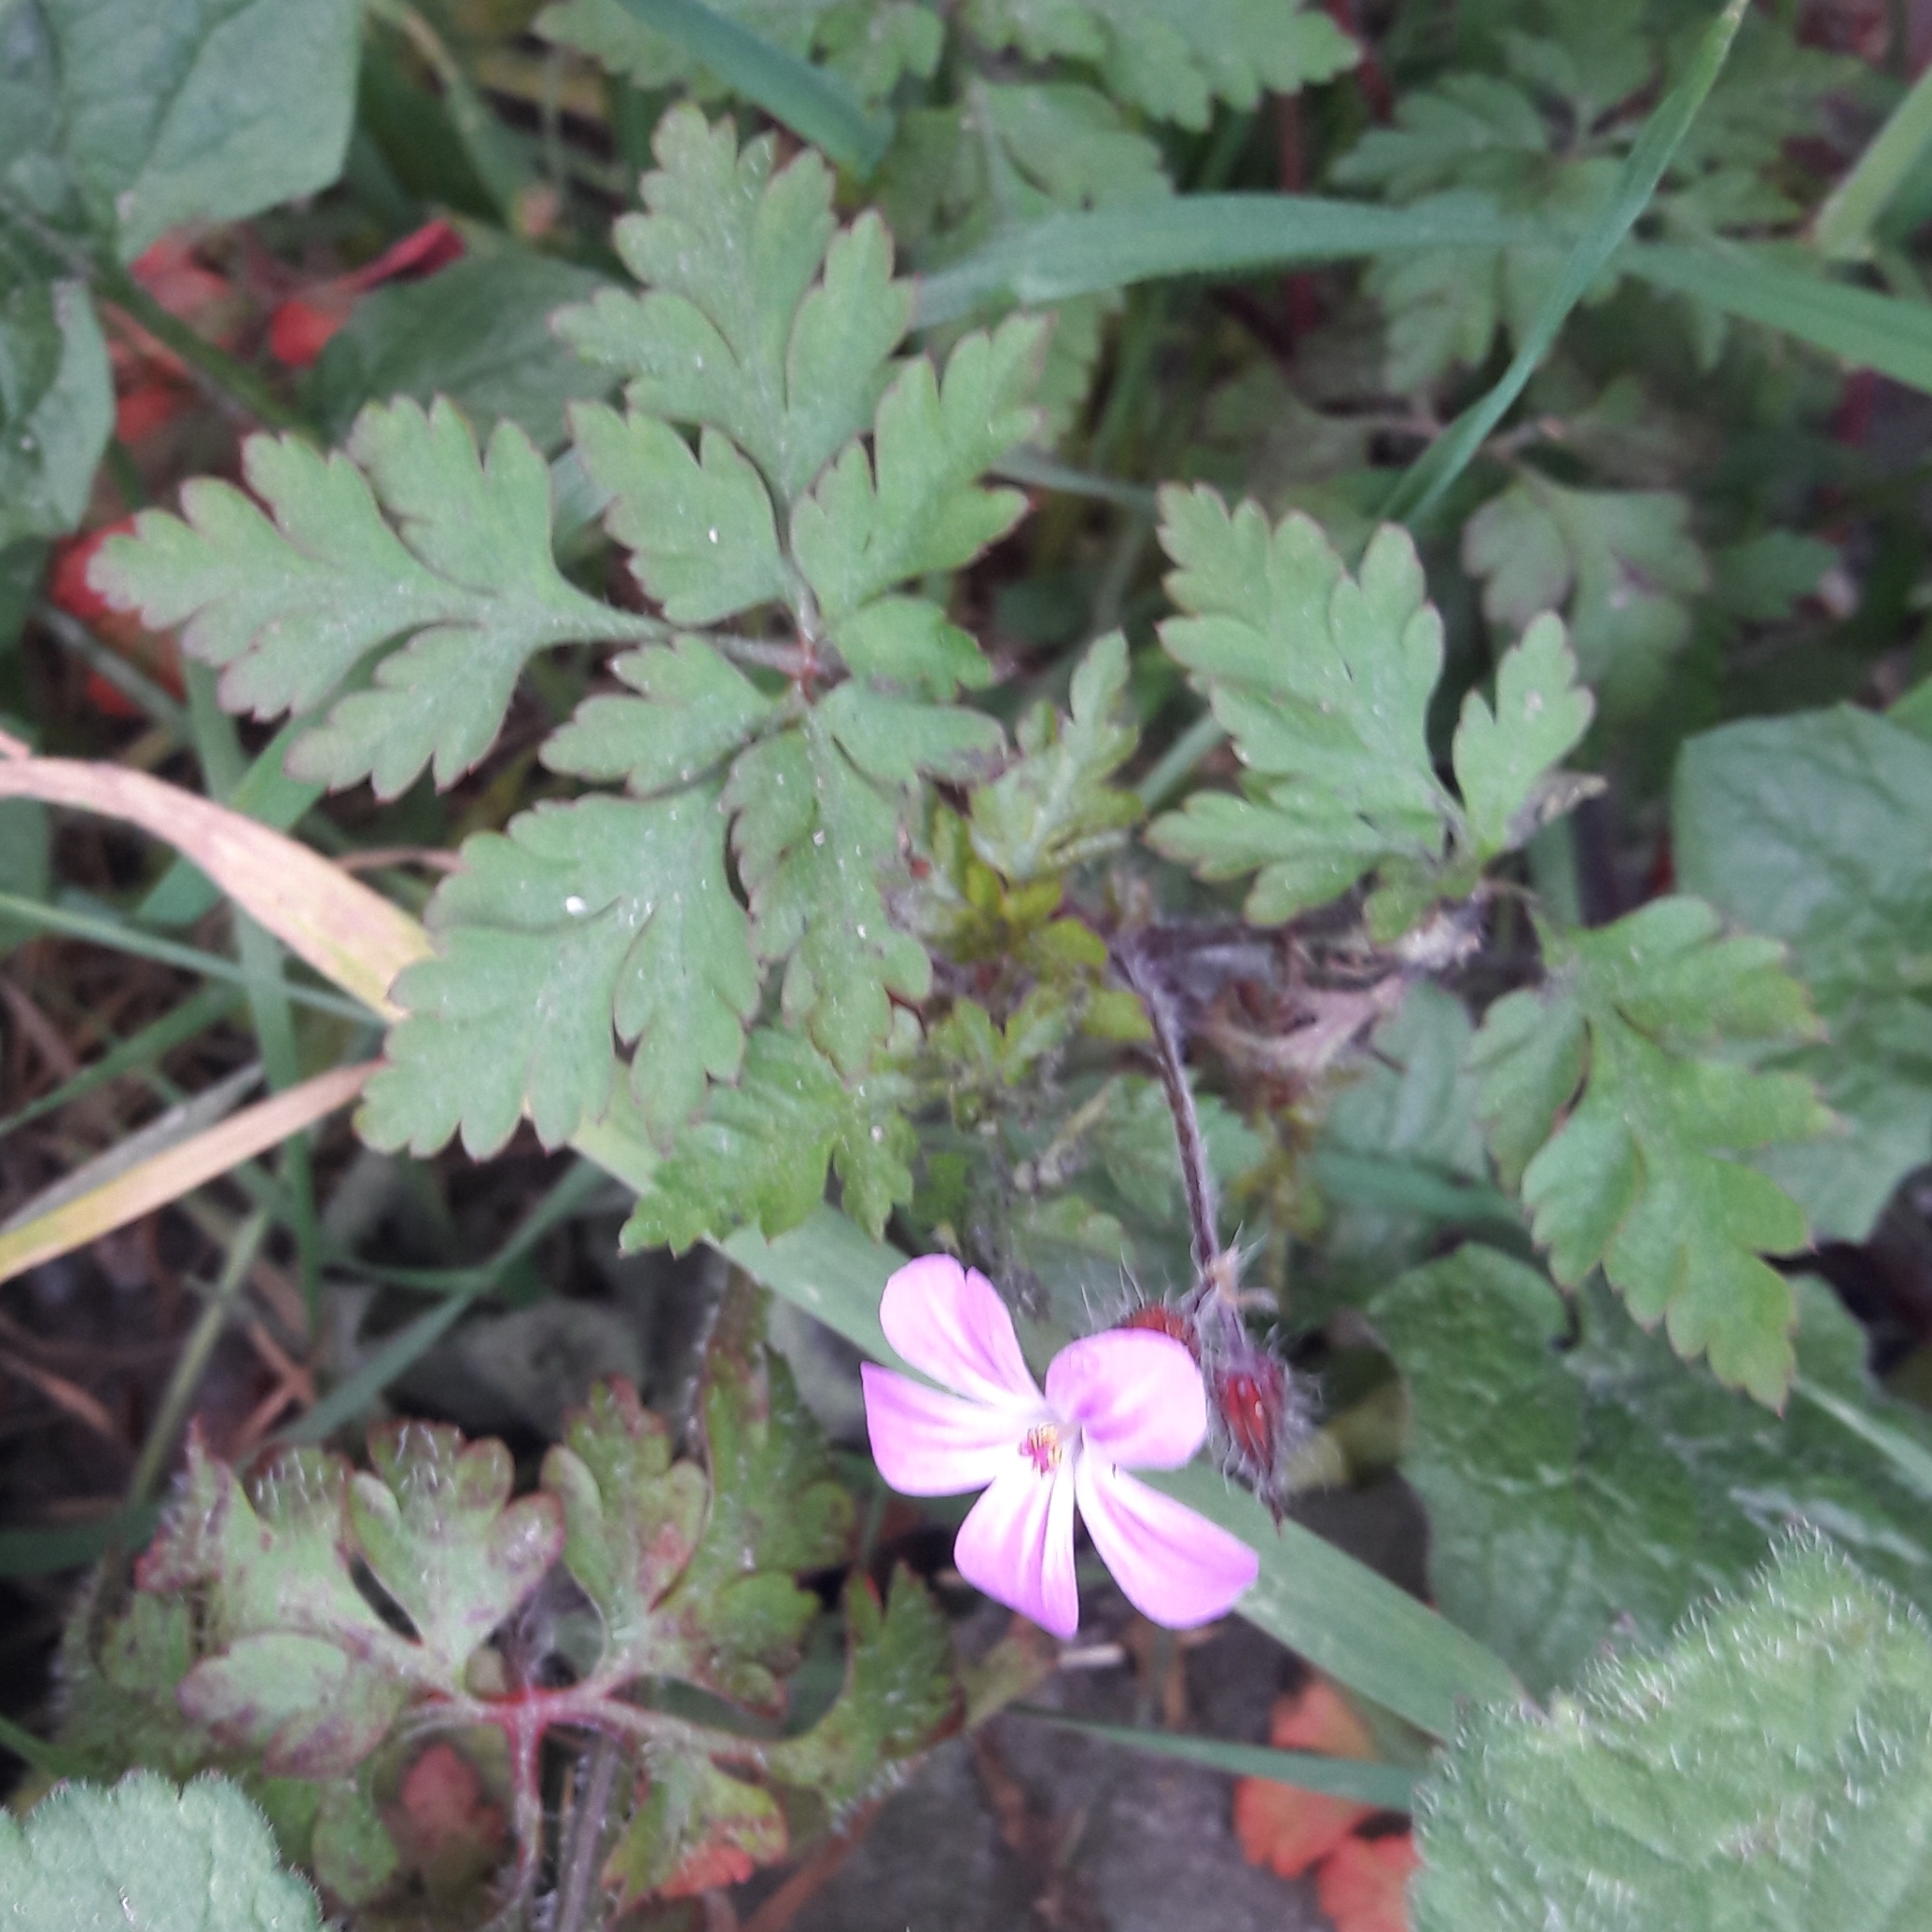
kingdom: Plantae
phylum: Tracheophyta
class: Magnoliopsida
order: Geraniales
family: Geraniaceae
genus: Geranium
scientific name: Geranium robertianum
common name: Herb-robert
